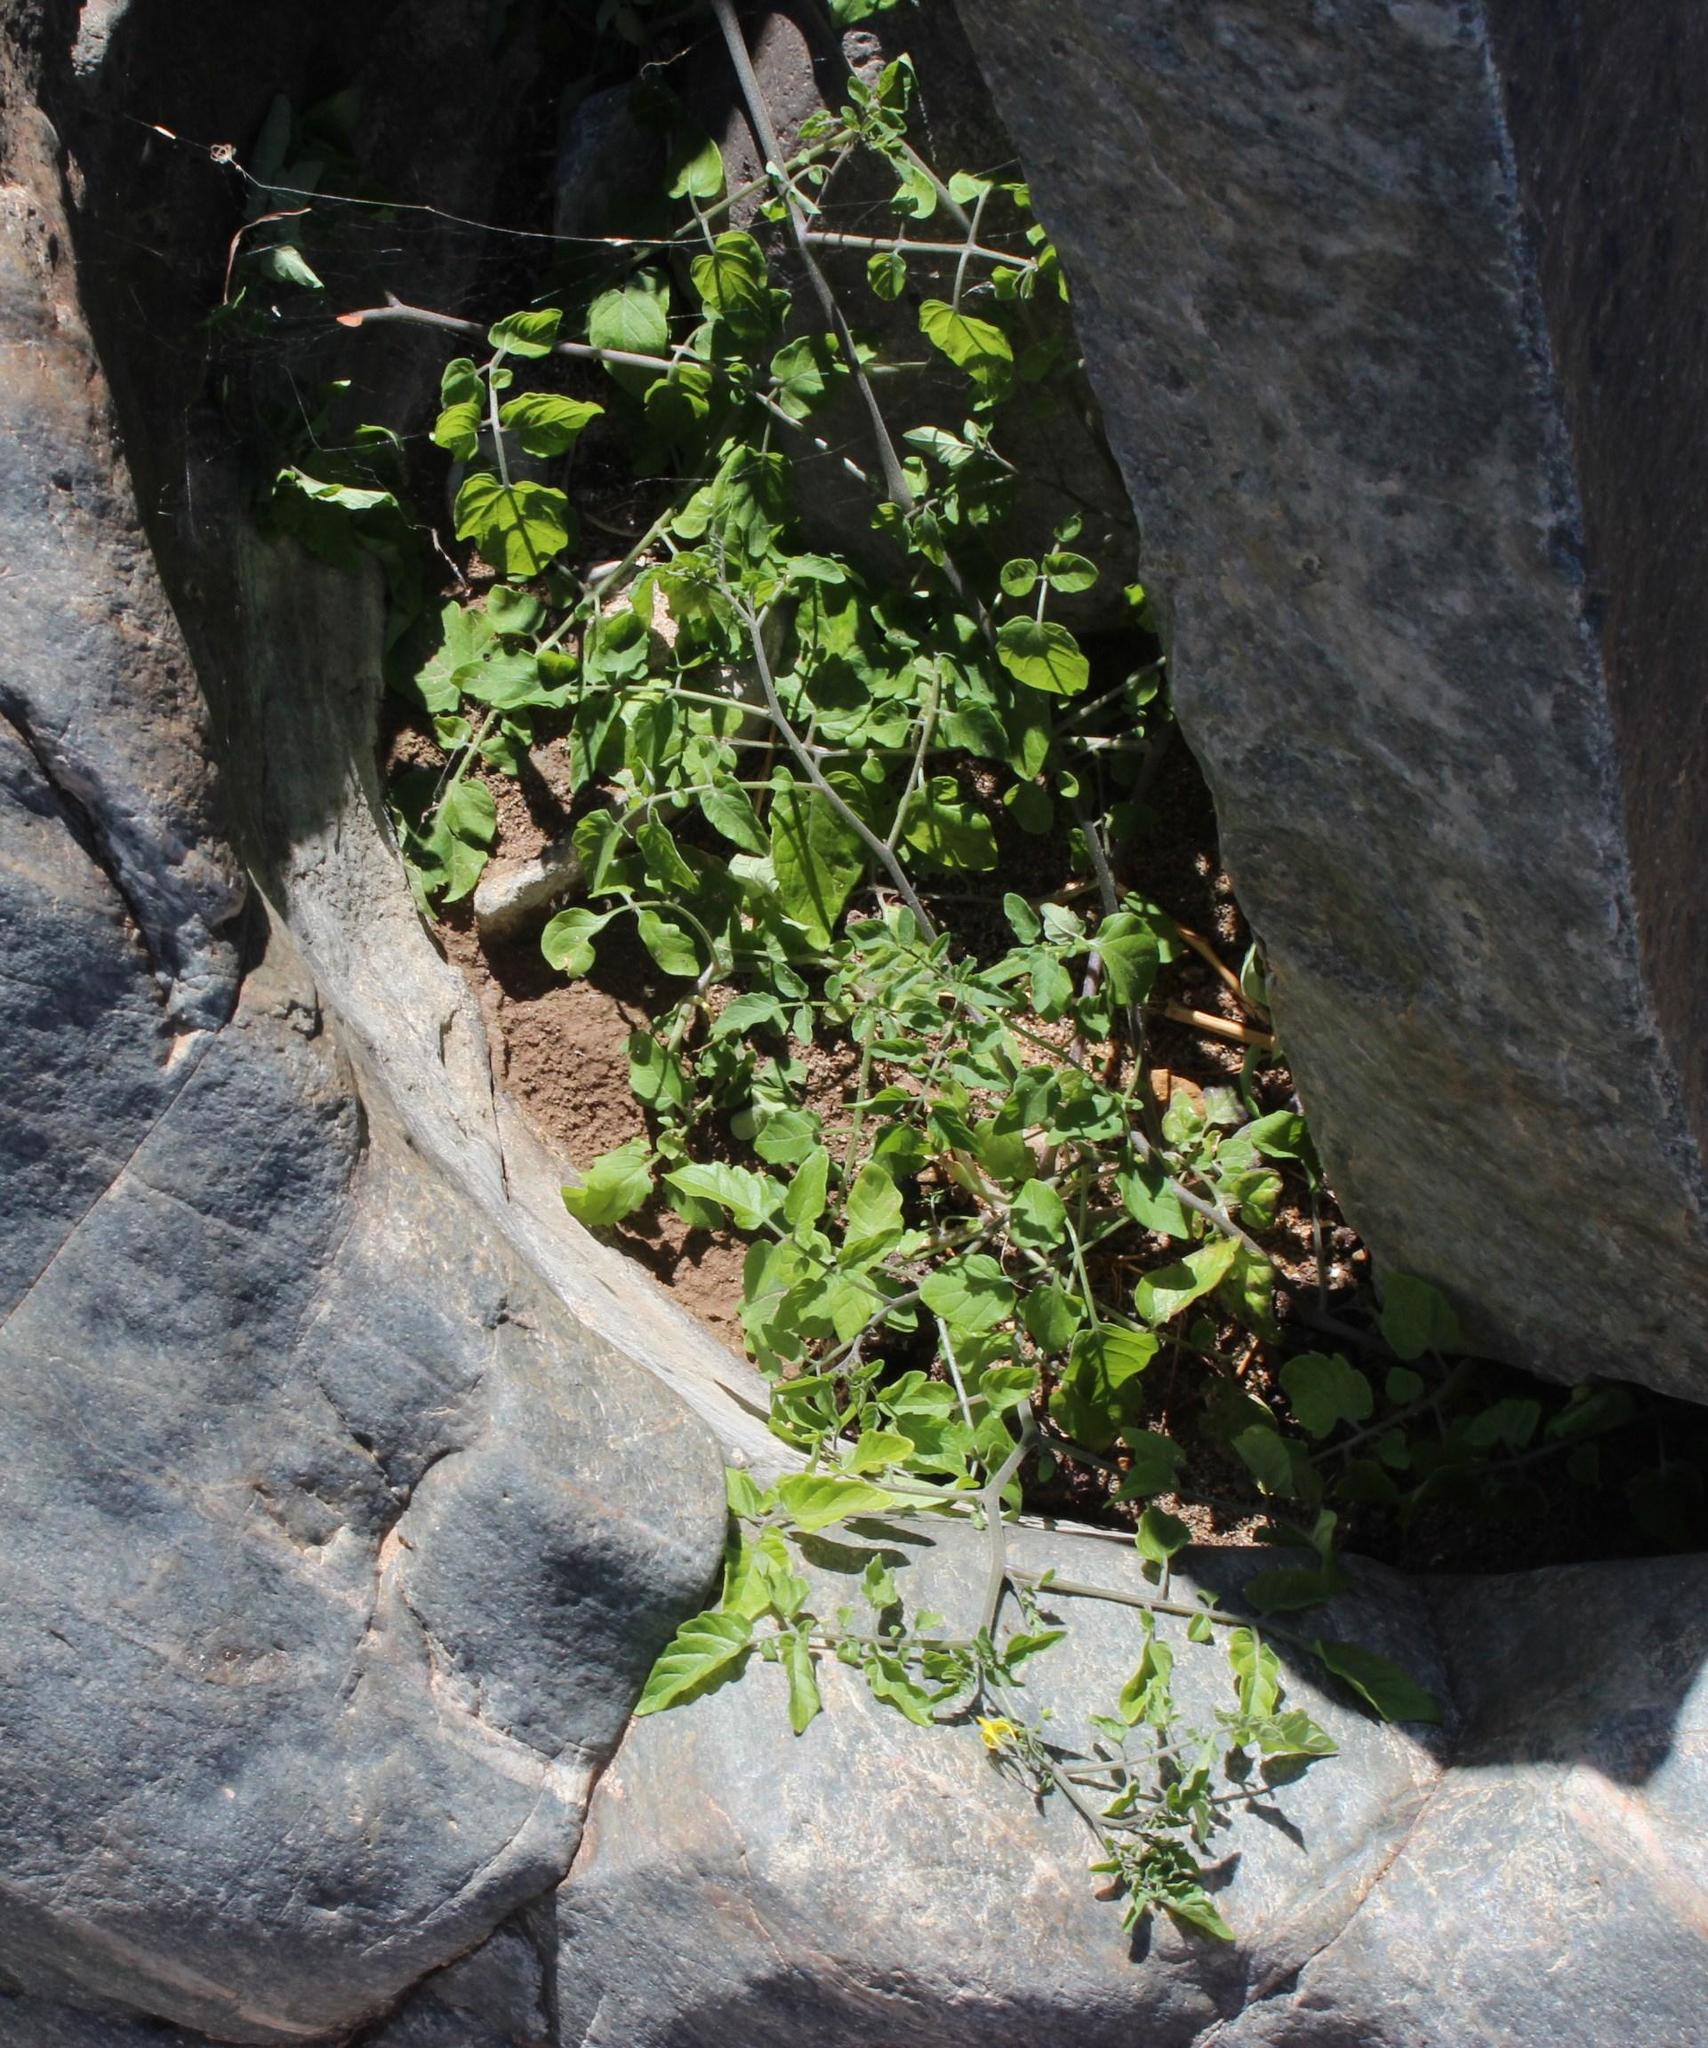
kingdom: Plantae
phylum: Tracheophyta
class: Magnoliopsida
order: Solanales
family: Solanaceae
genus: Solanum
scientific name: Solanum lycopersicum
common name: Garden tomato
